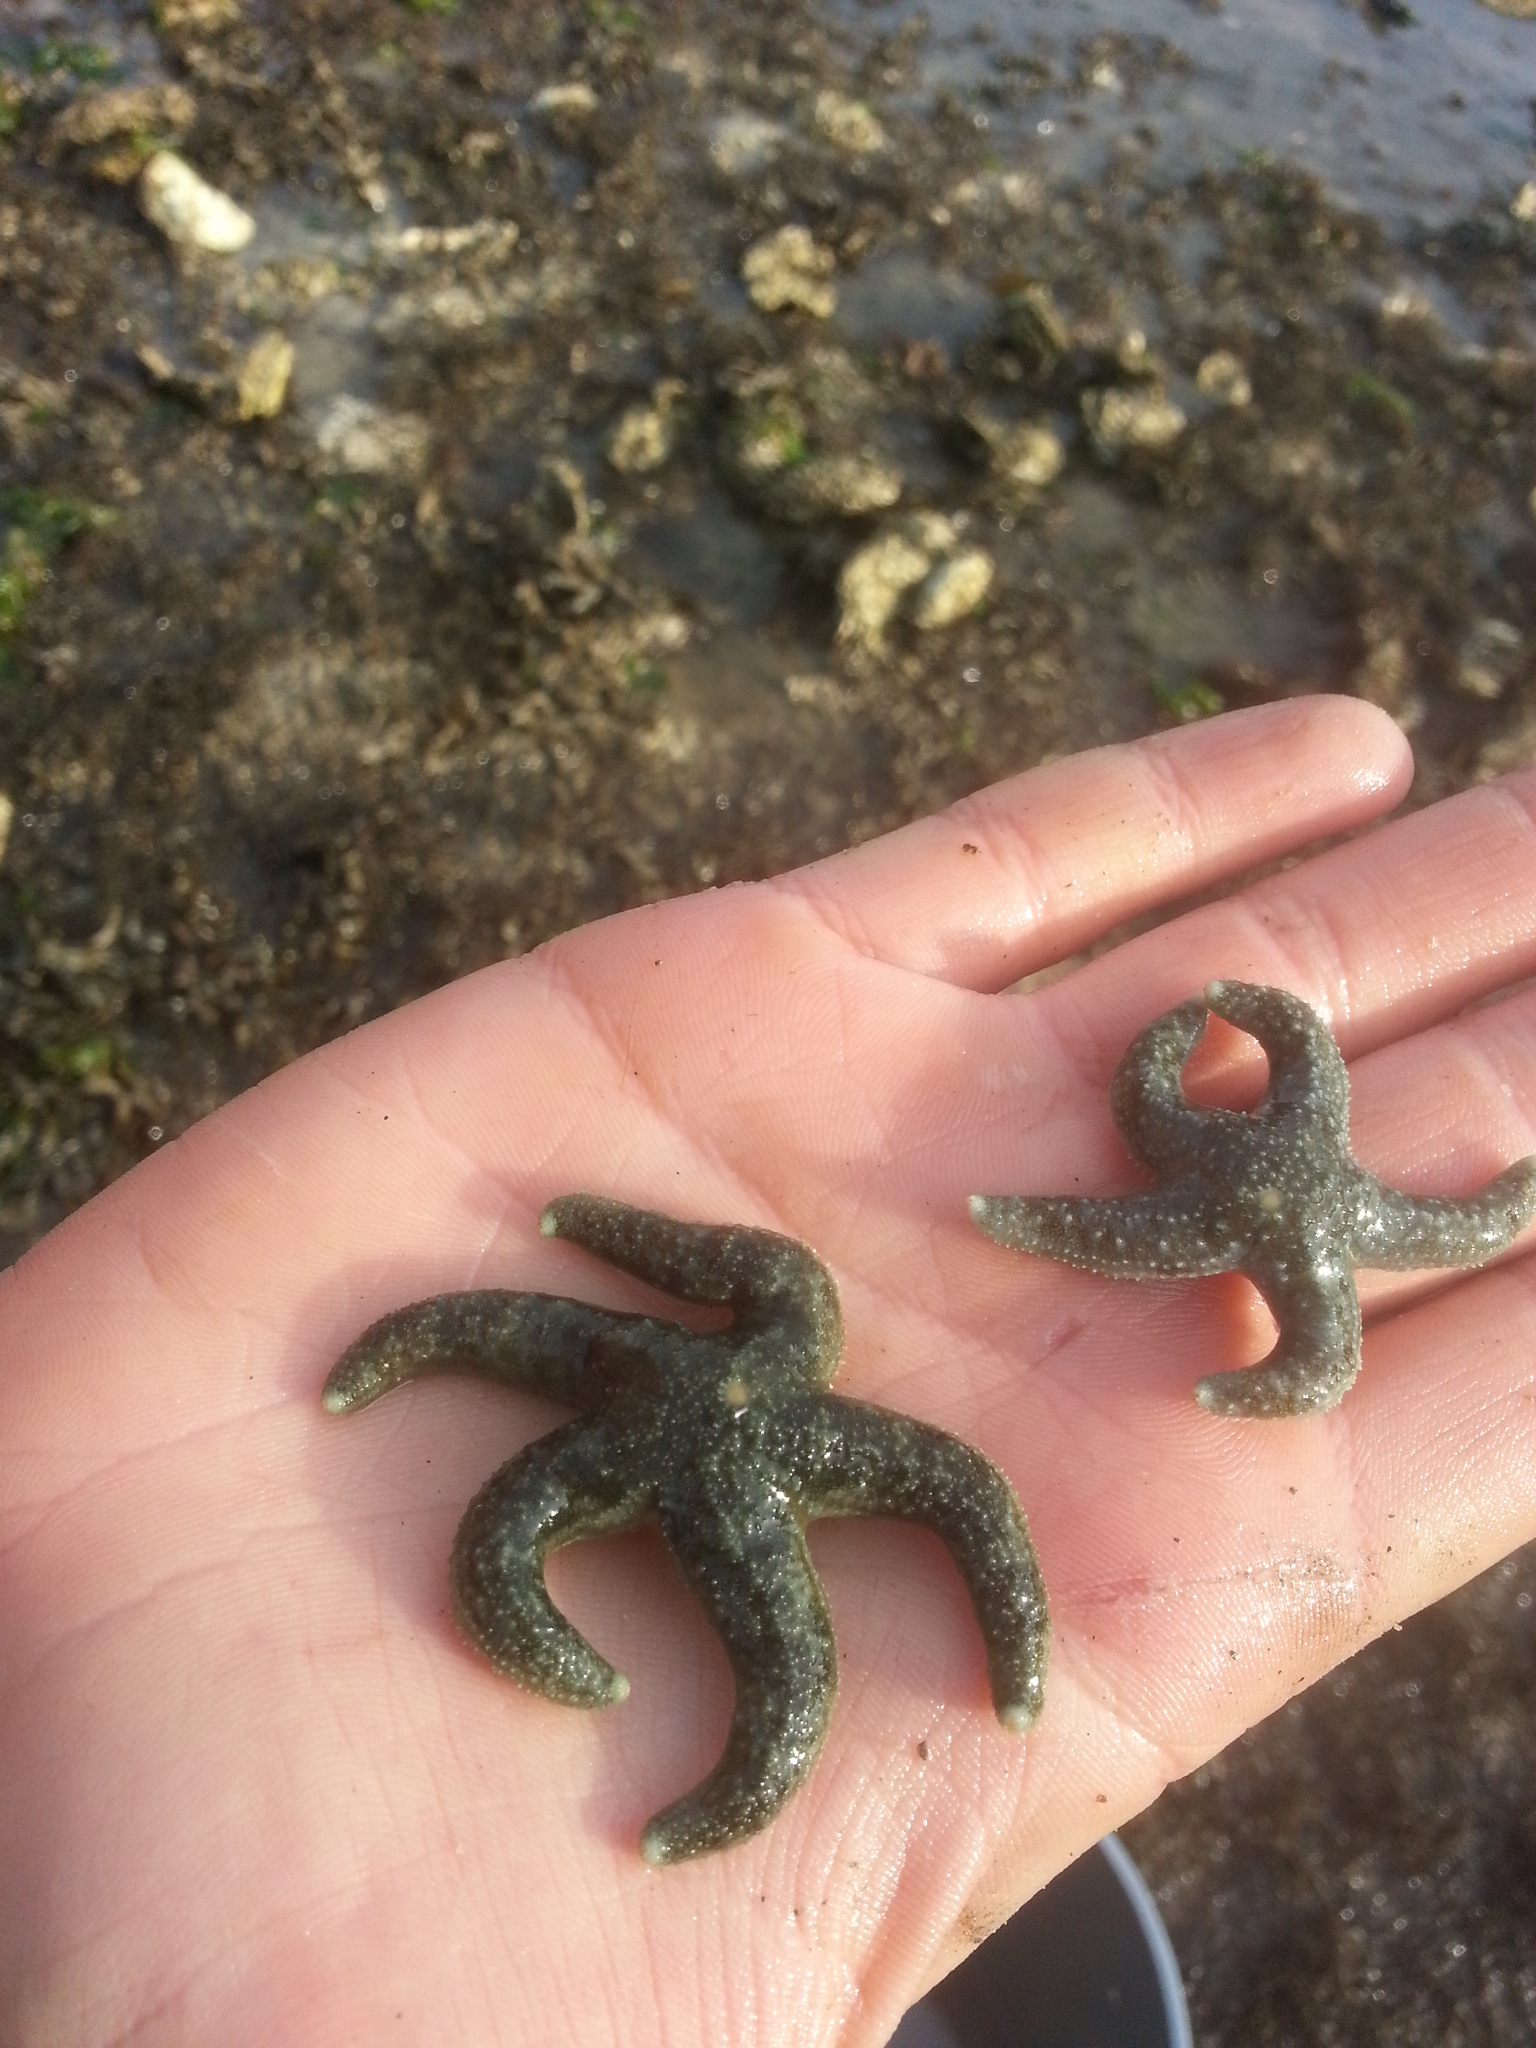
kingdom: Animalia
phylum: Echinodermata
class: Asteroidea
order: Forcipulatida
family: Asteriidae
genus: Evasterias
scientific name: Evasterias troschelii
